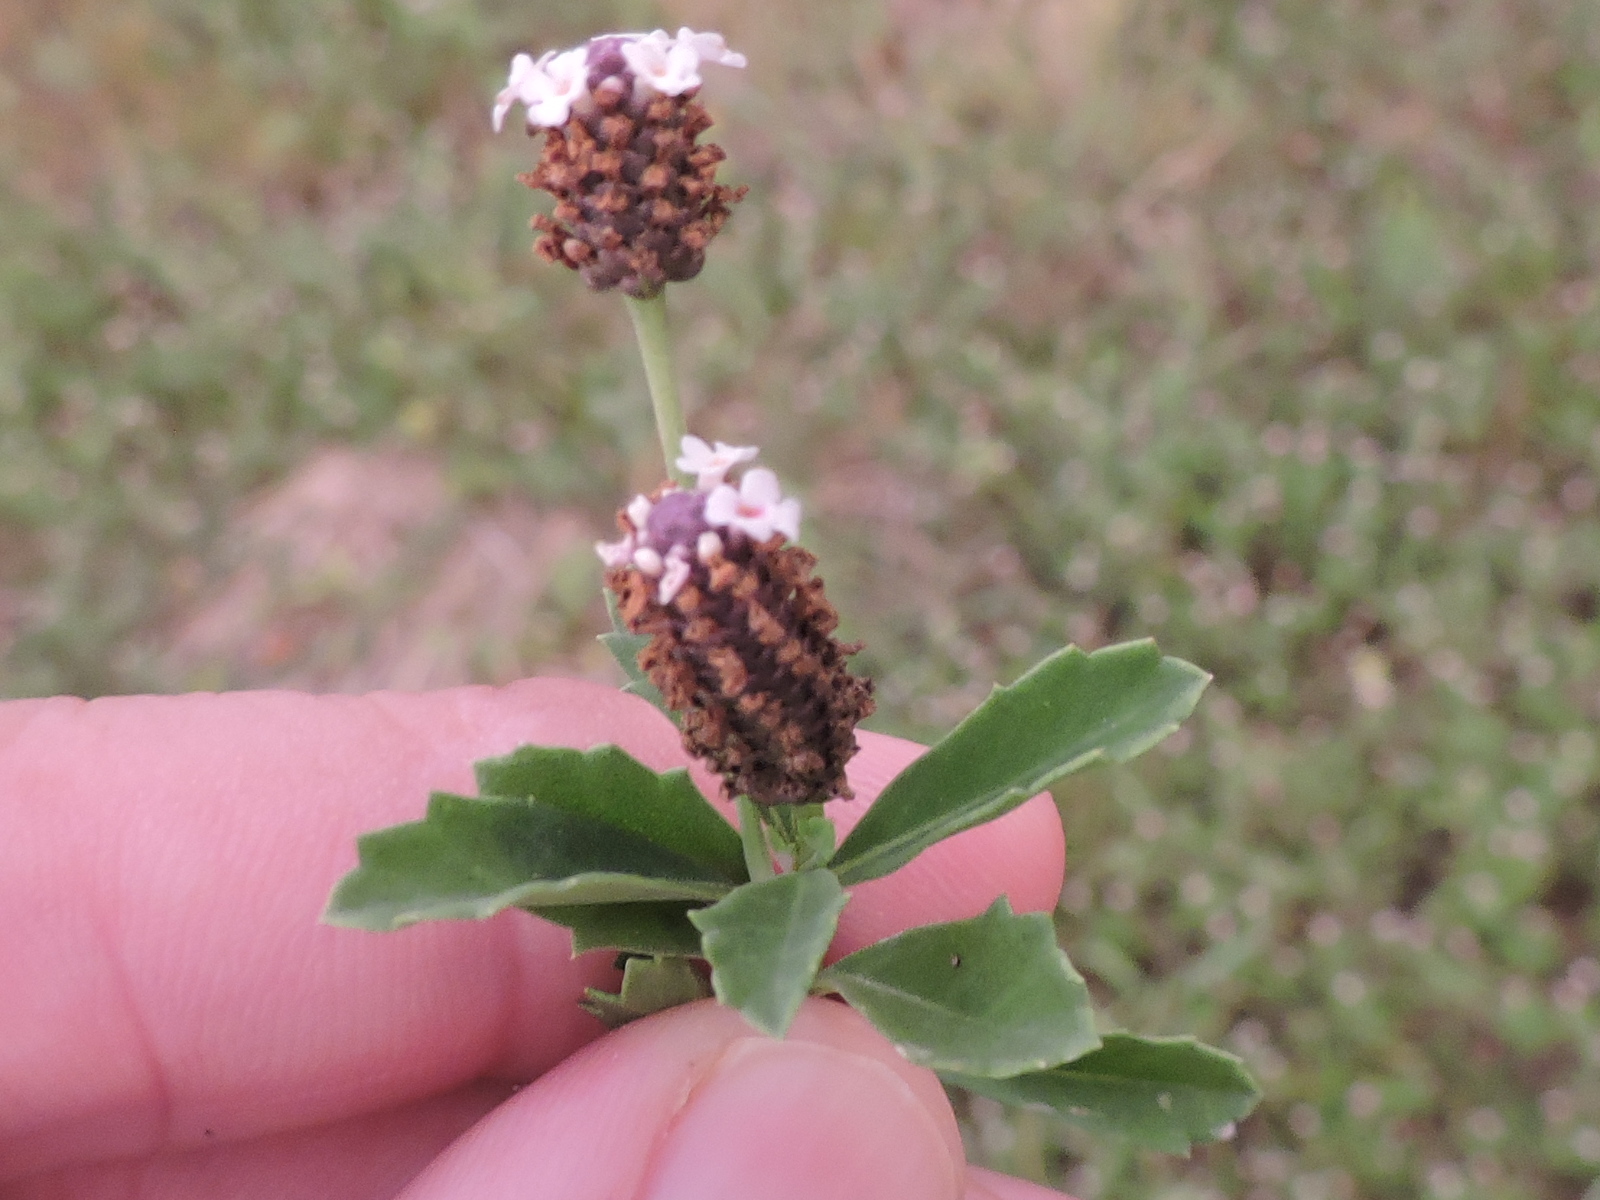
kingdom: Plantae
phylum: Tracheophyta
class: Magnoliopsida
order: Lamiales
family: Verbenaceae
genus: Phyla
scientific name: Phyla nodiflora
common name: Frogfruit
